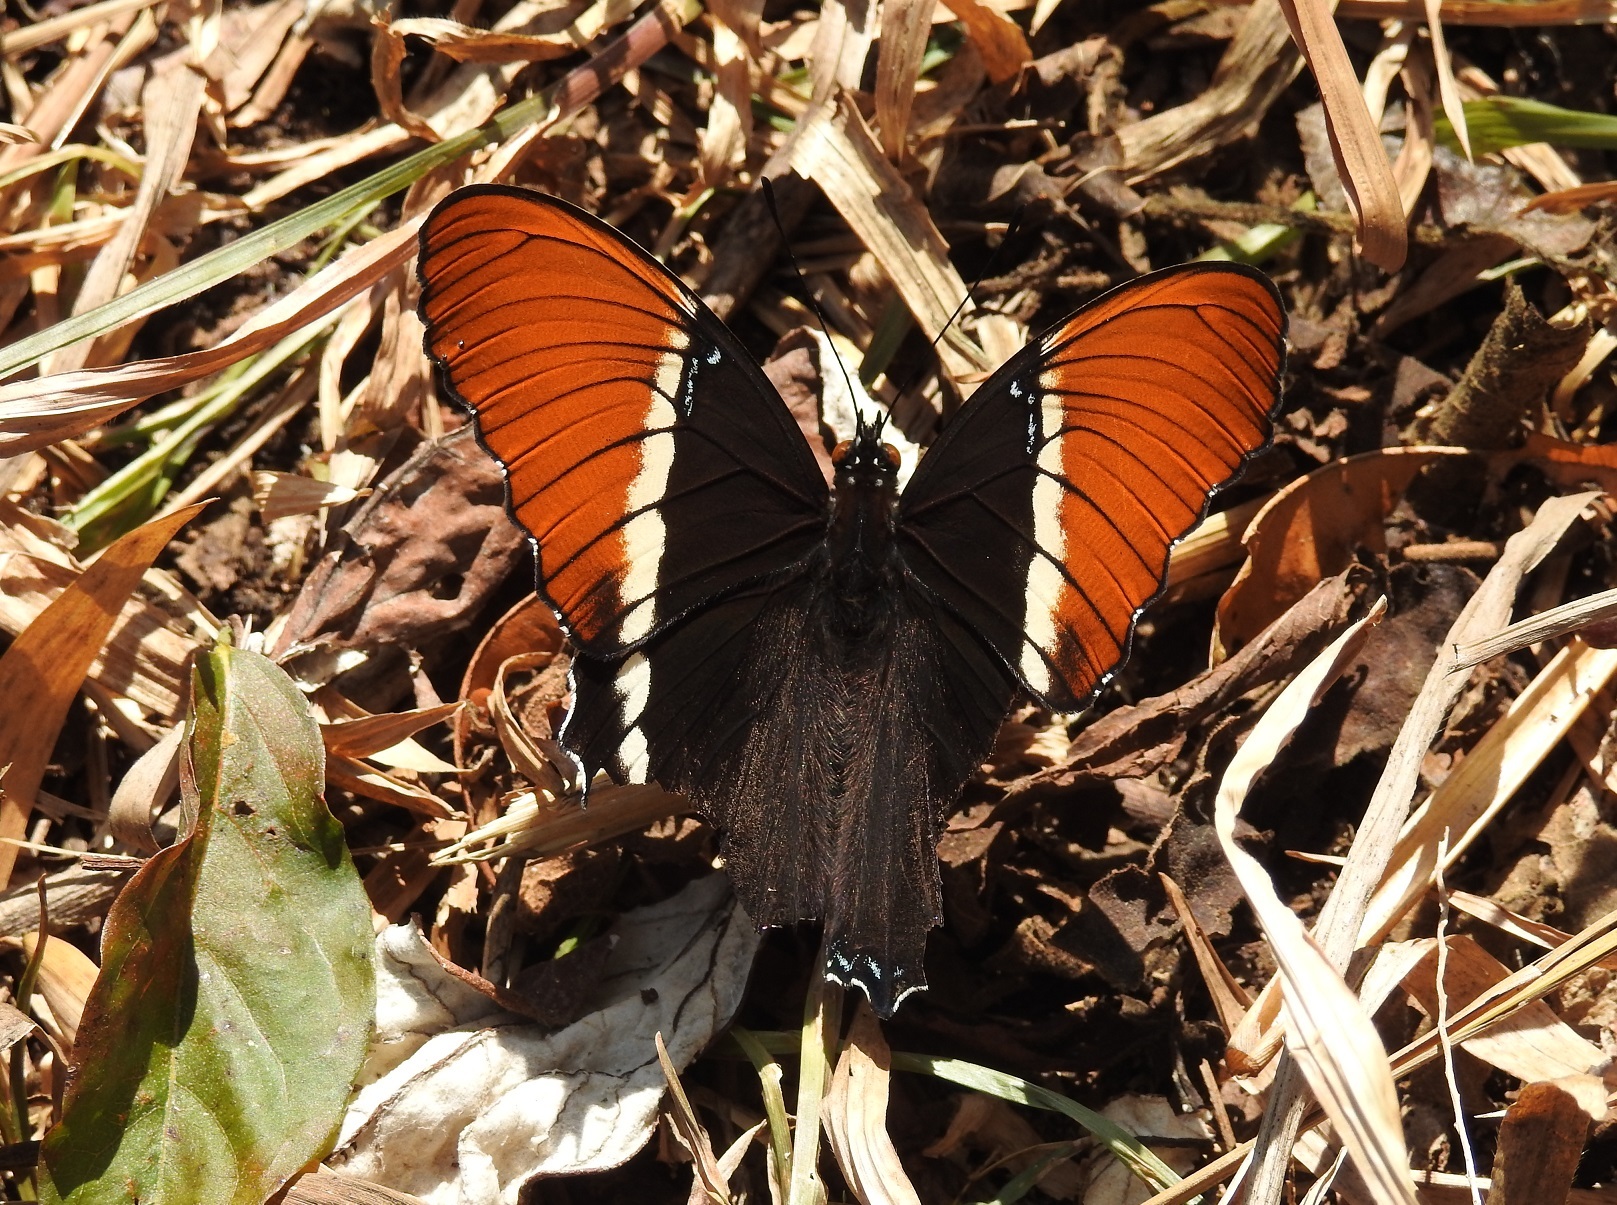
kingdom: Animalia
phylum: Arthropoda
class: Insecta
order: Lepidoptera
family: Nymphalidae
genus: Siproeta
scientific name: Siproeta epaphus
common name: Rusty-tipped page
